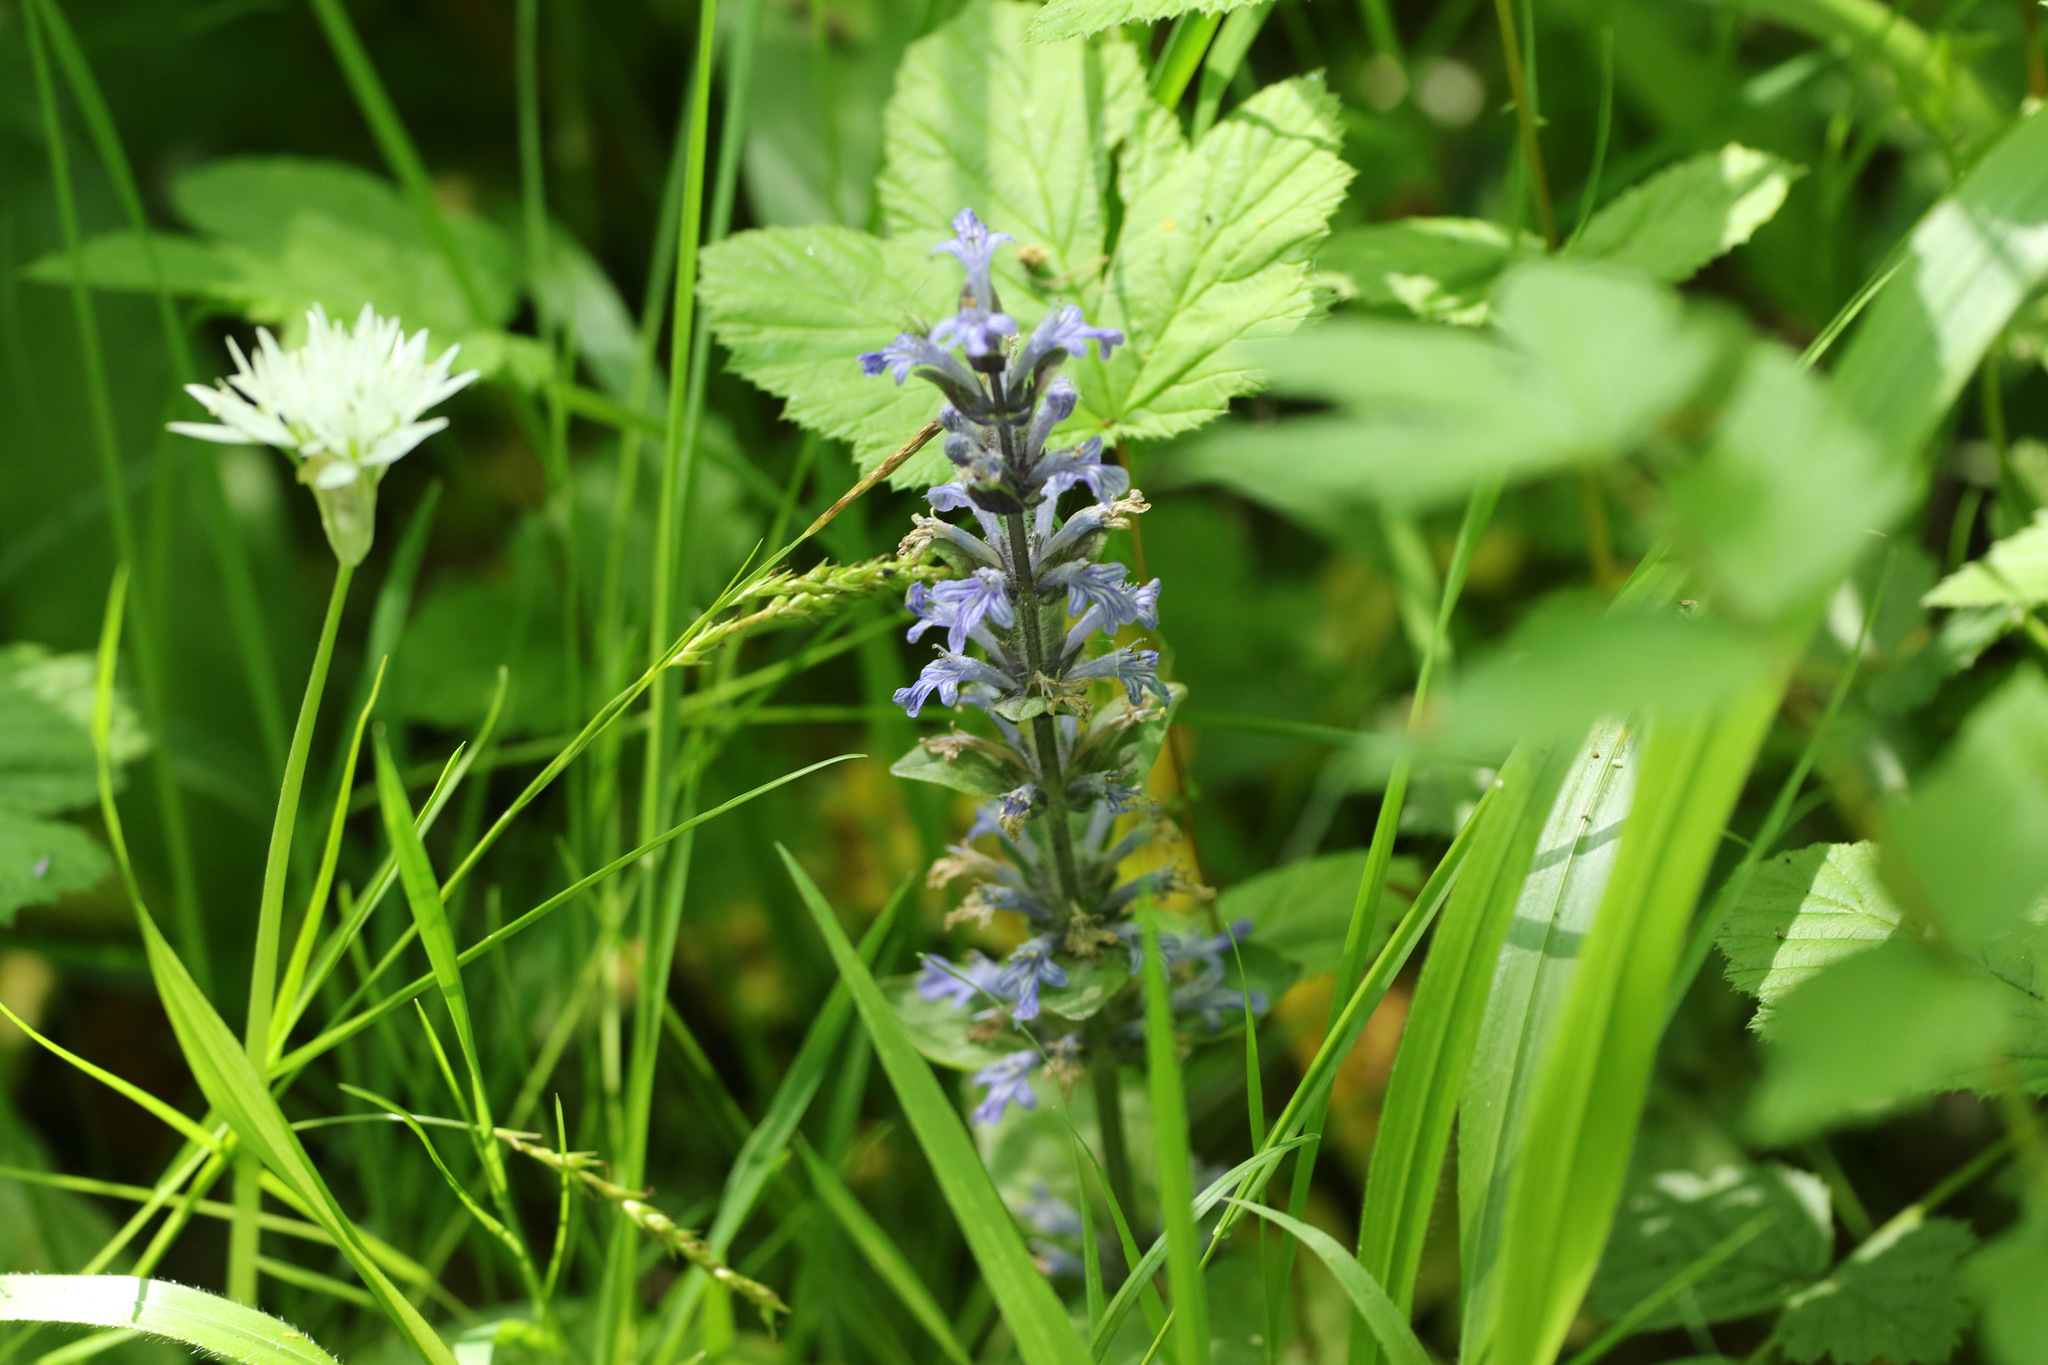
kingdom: Plantae
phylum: Tracheophyta
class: Magnoliopsida
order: Lamiales
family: Lamiaceae
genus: Ajuga
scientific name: Ajuga reptans
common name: Bugle
